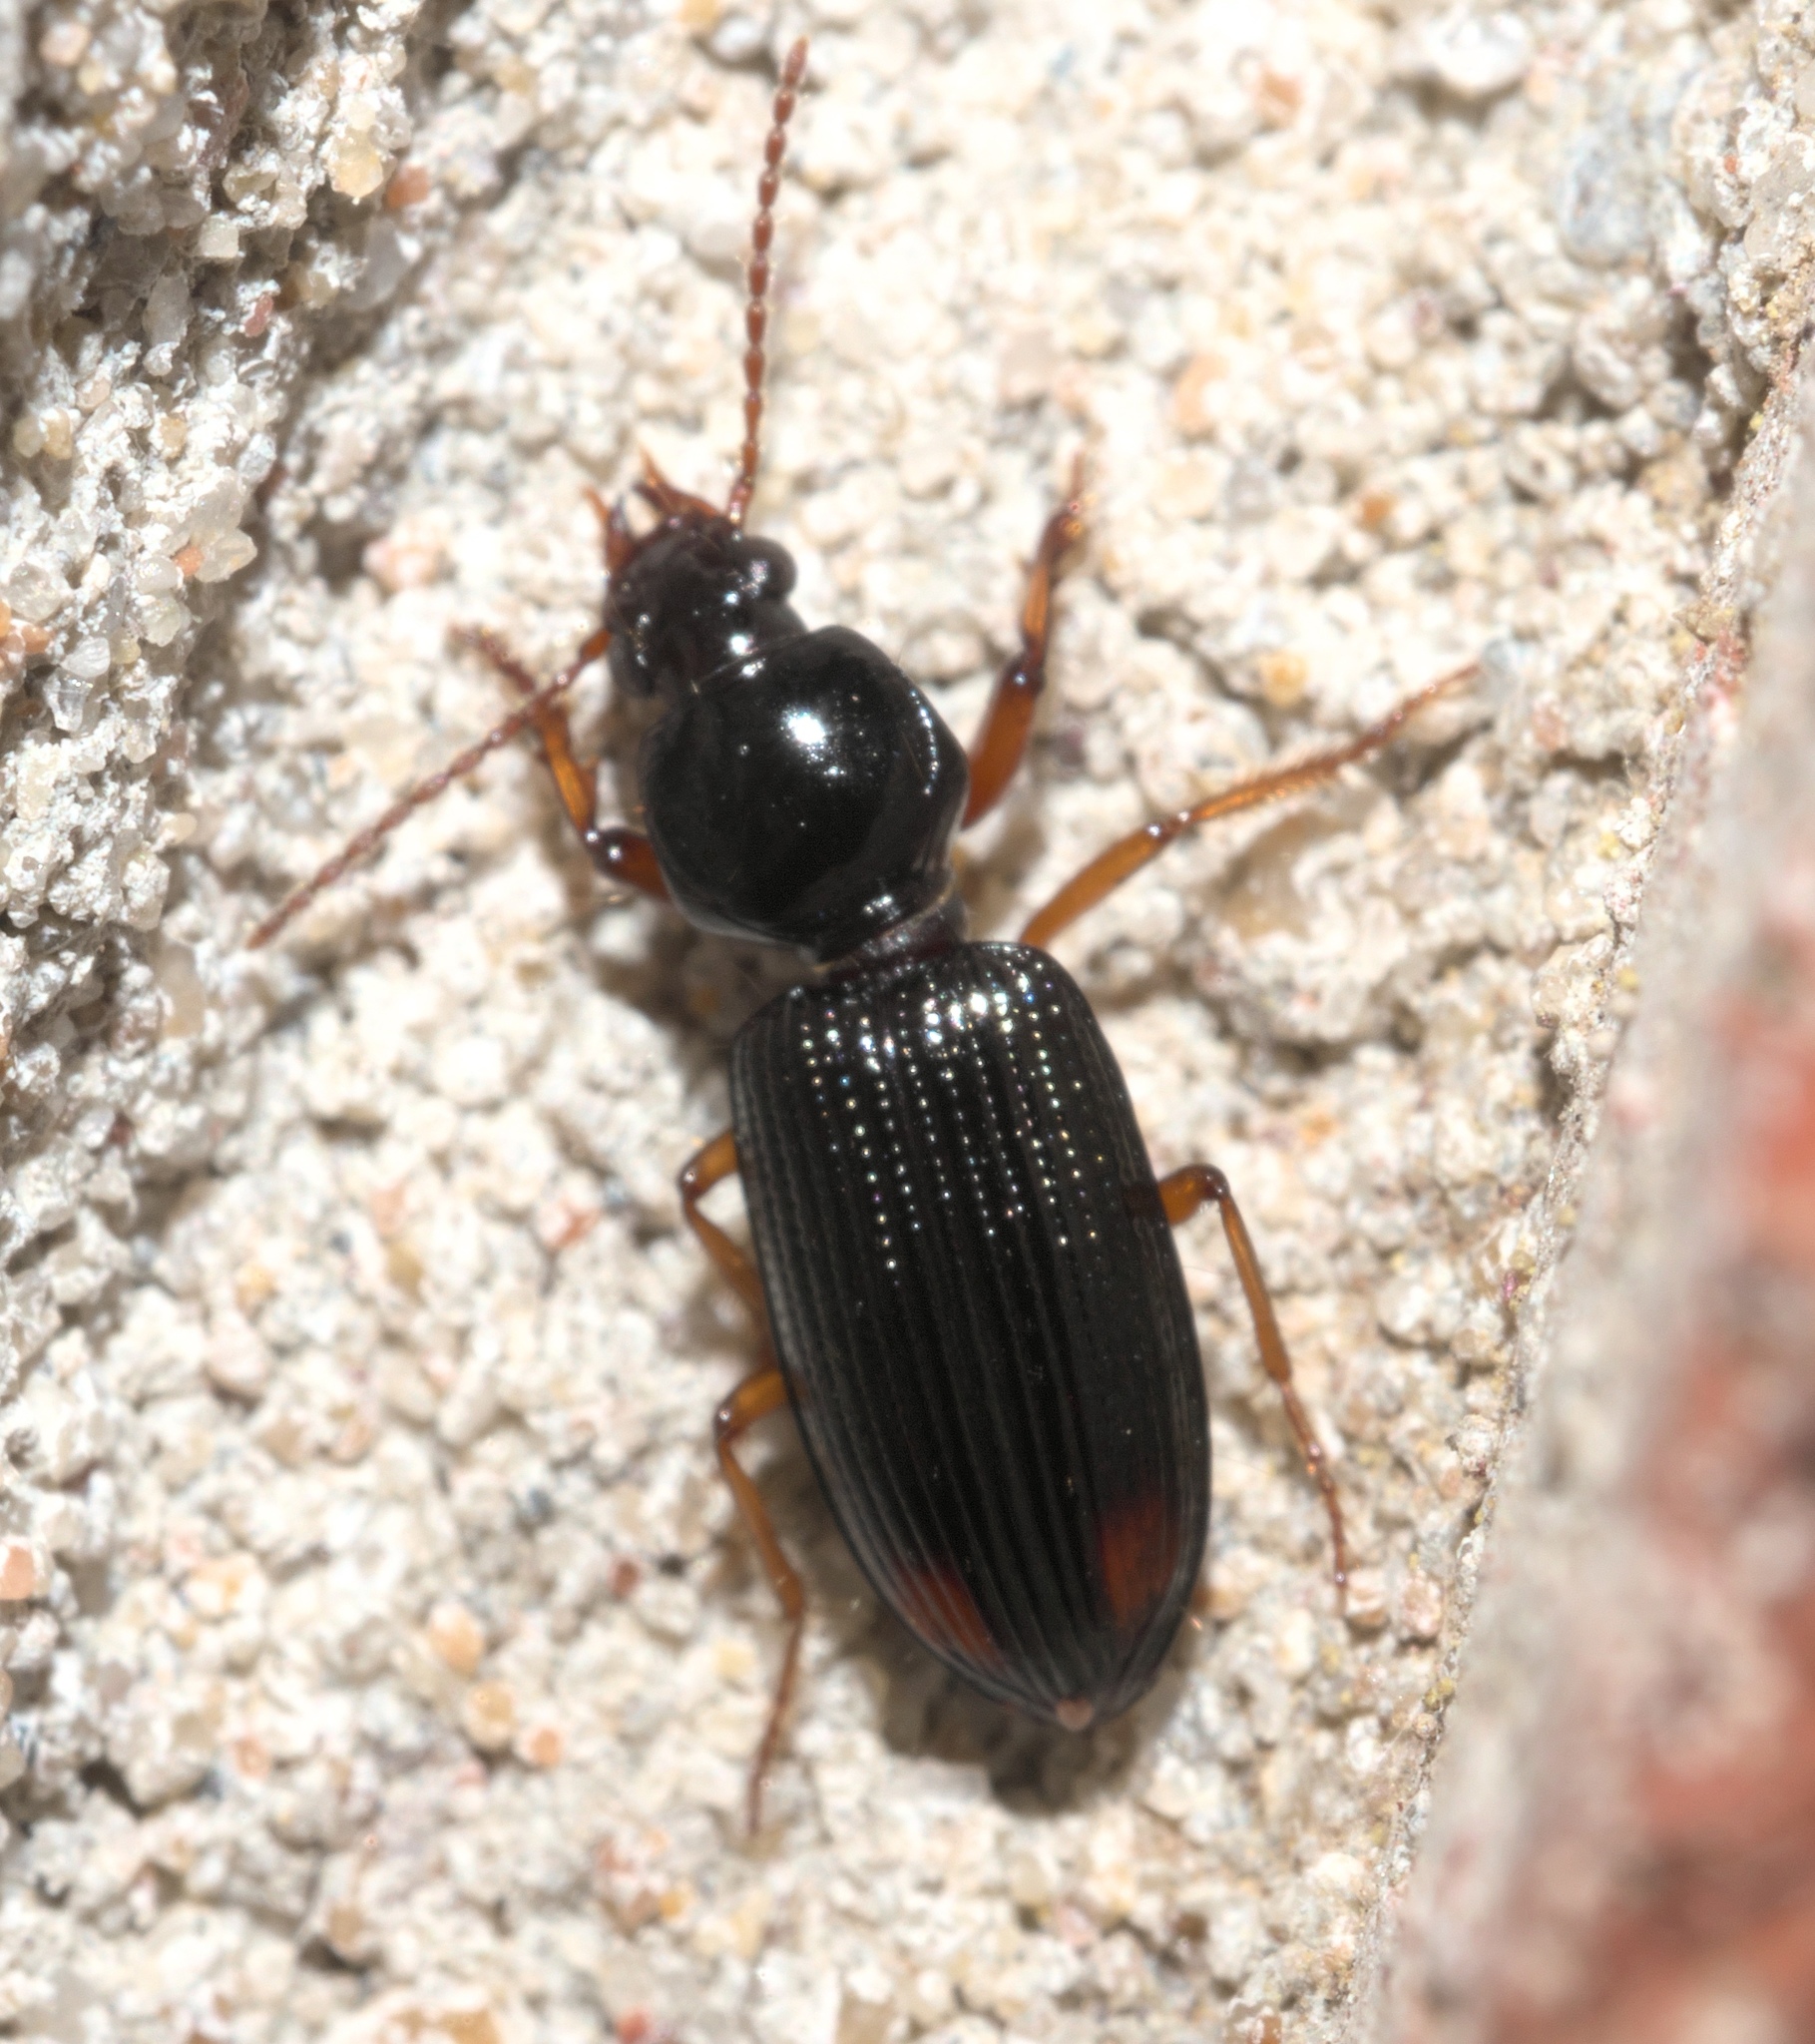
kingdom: Animalia
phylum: Arthropoda
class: Insecta
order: Coleoptera
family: Carabidae
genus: Aspidoglossa
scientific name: Aspidoglossa subangulata
